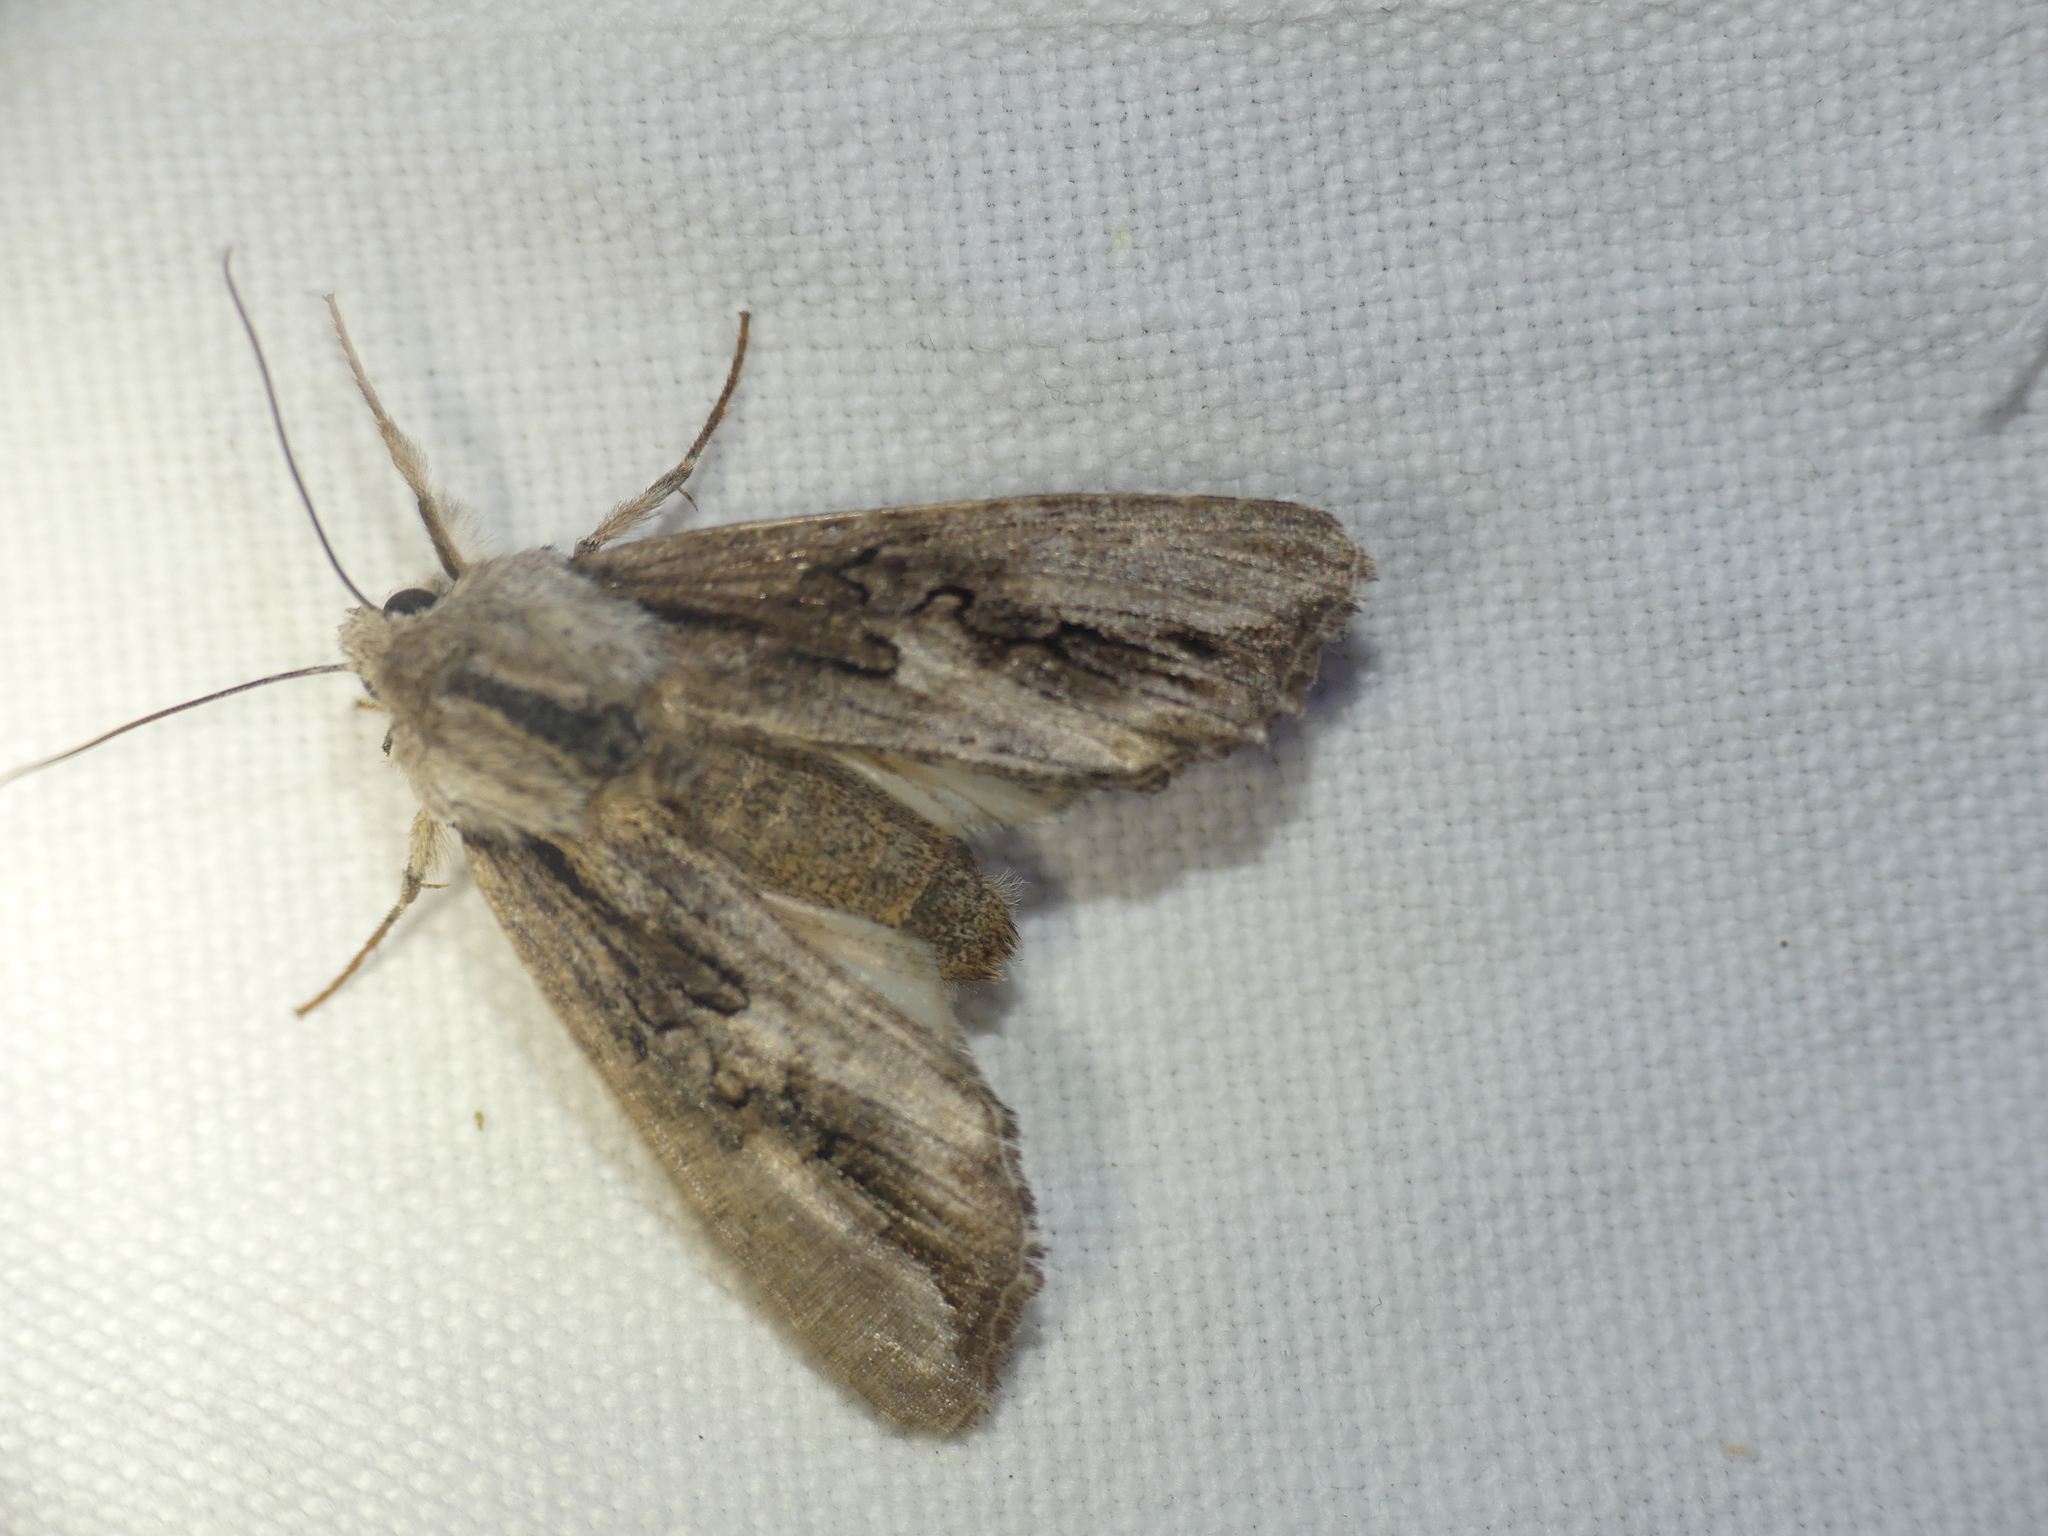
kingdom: Animalia
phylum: Arthropoda
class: Insecta
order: Lepidoptera
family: Noctuidae
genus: Egira
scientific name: Egira conspicillaris
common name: Silver cloud
